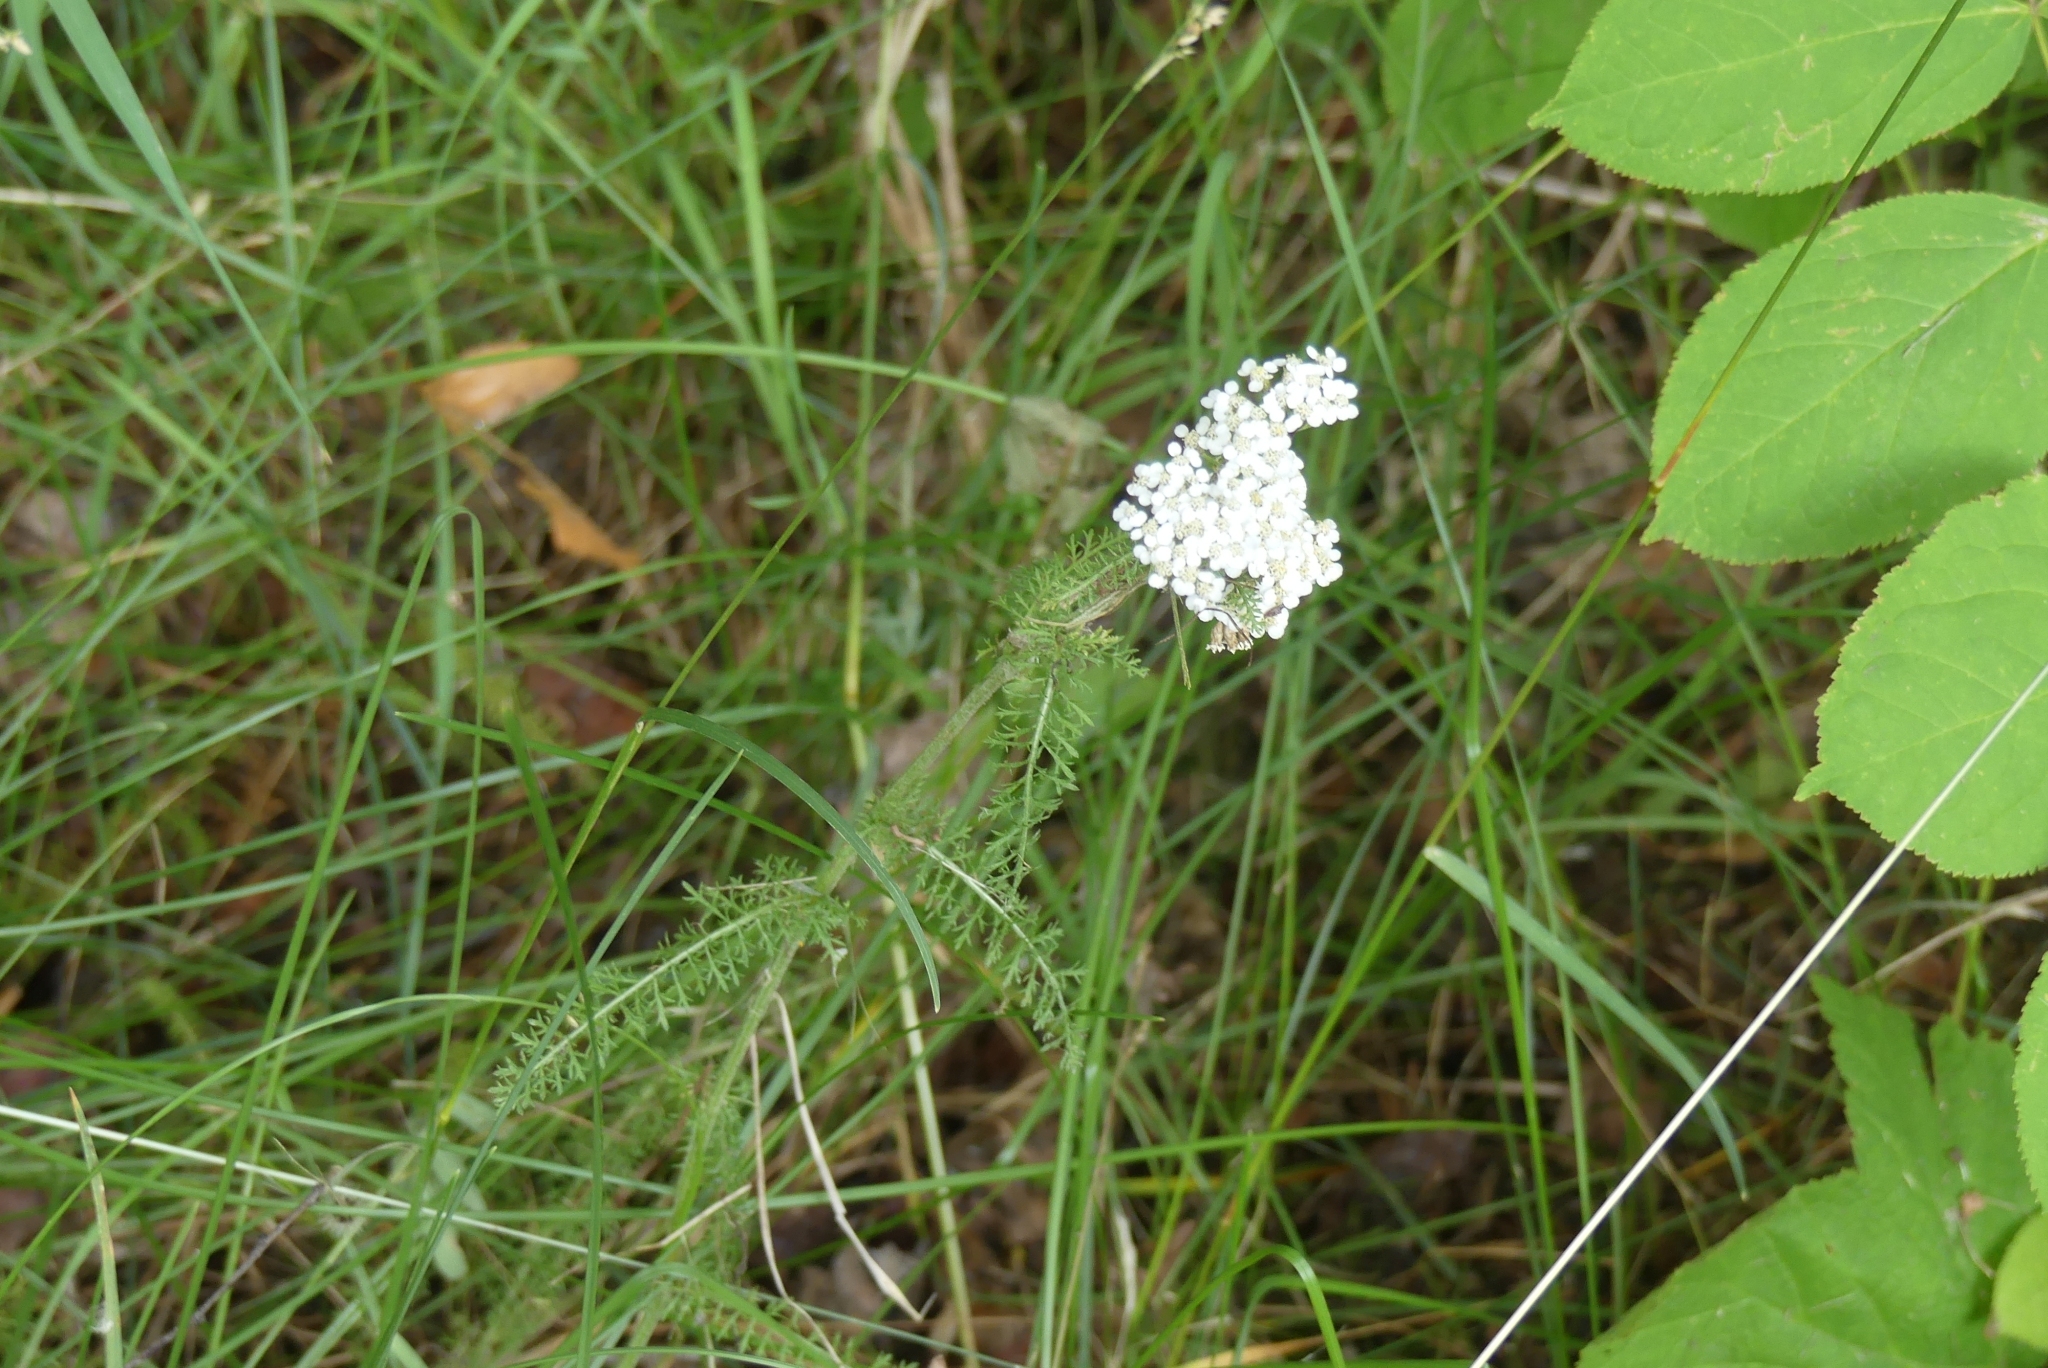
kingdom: Plantae
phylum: Tracheophyta
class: Magnoliopsida
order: Asterales
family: Asteraceae
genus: Achillea
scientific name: Achillea millefolium
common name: Yarrow
